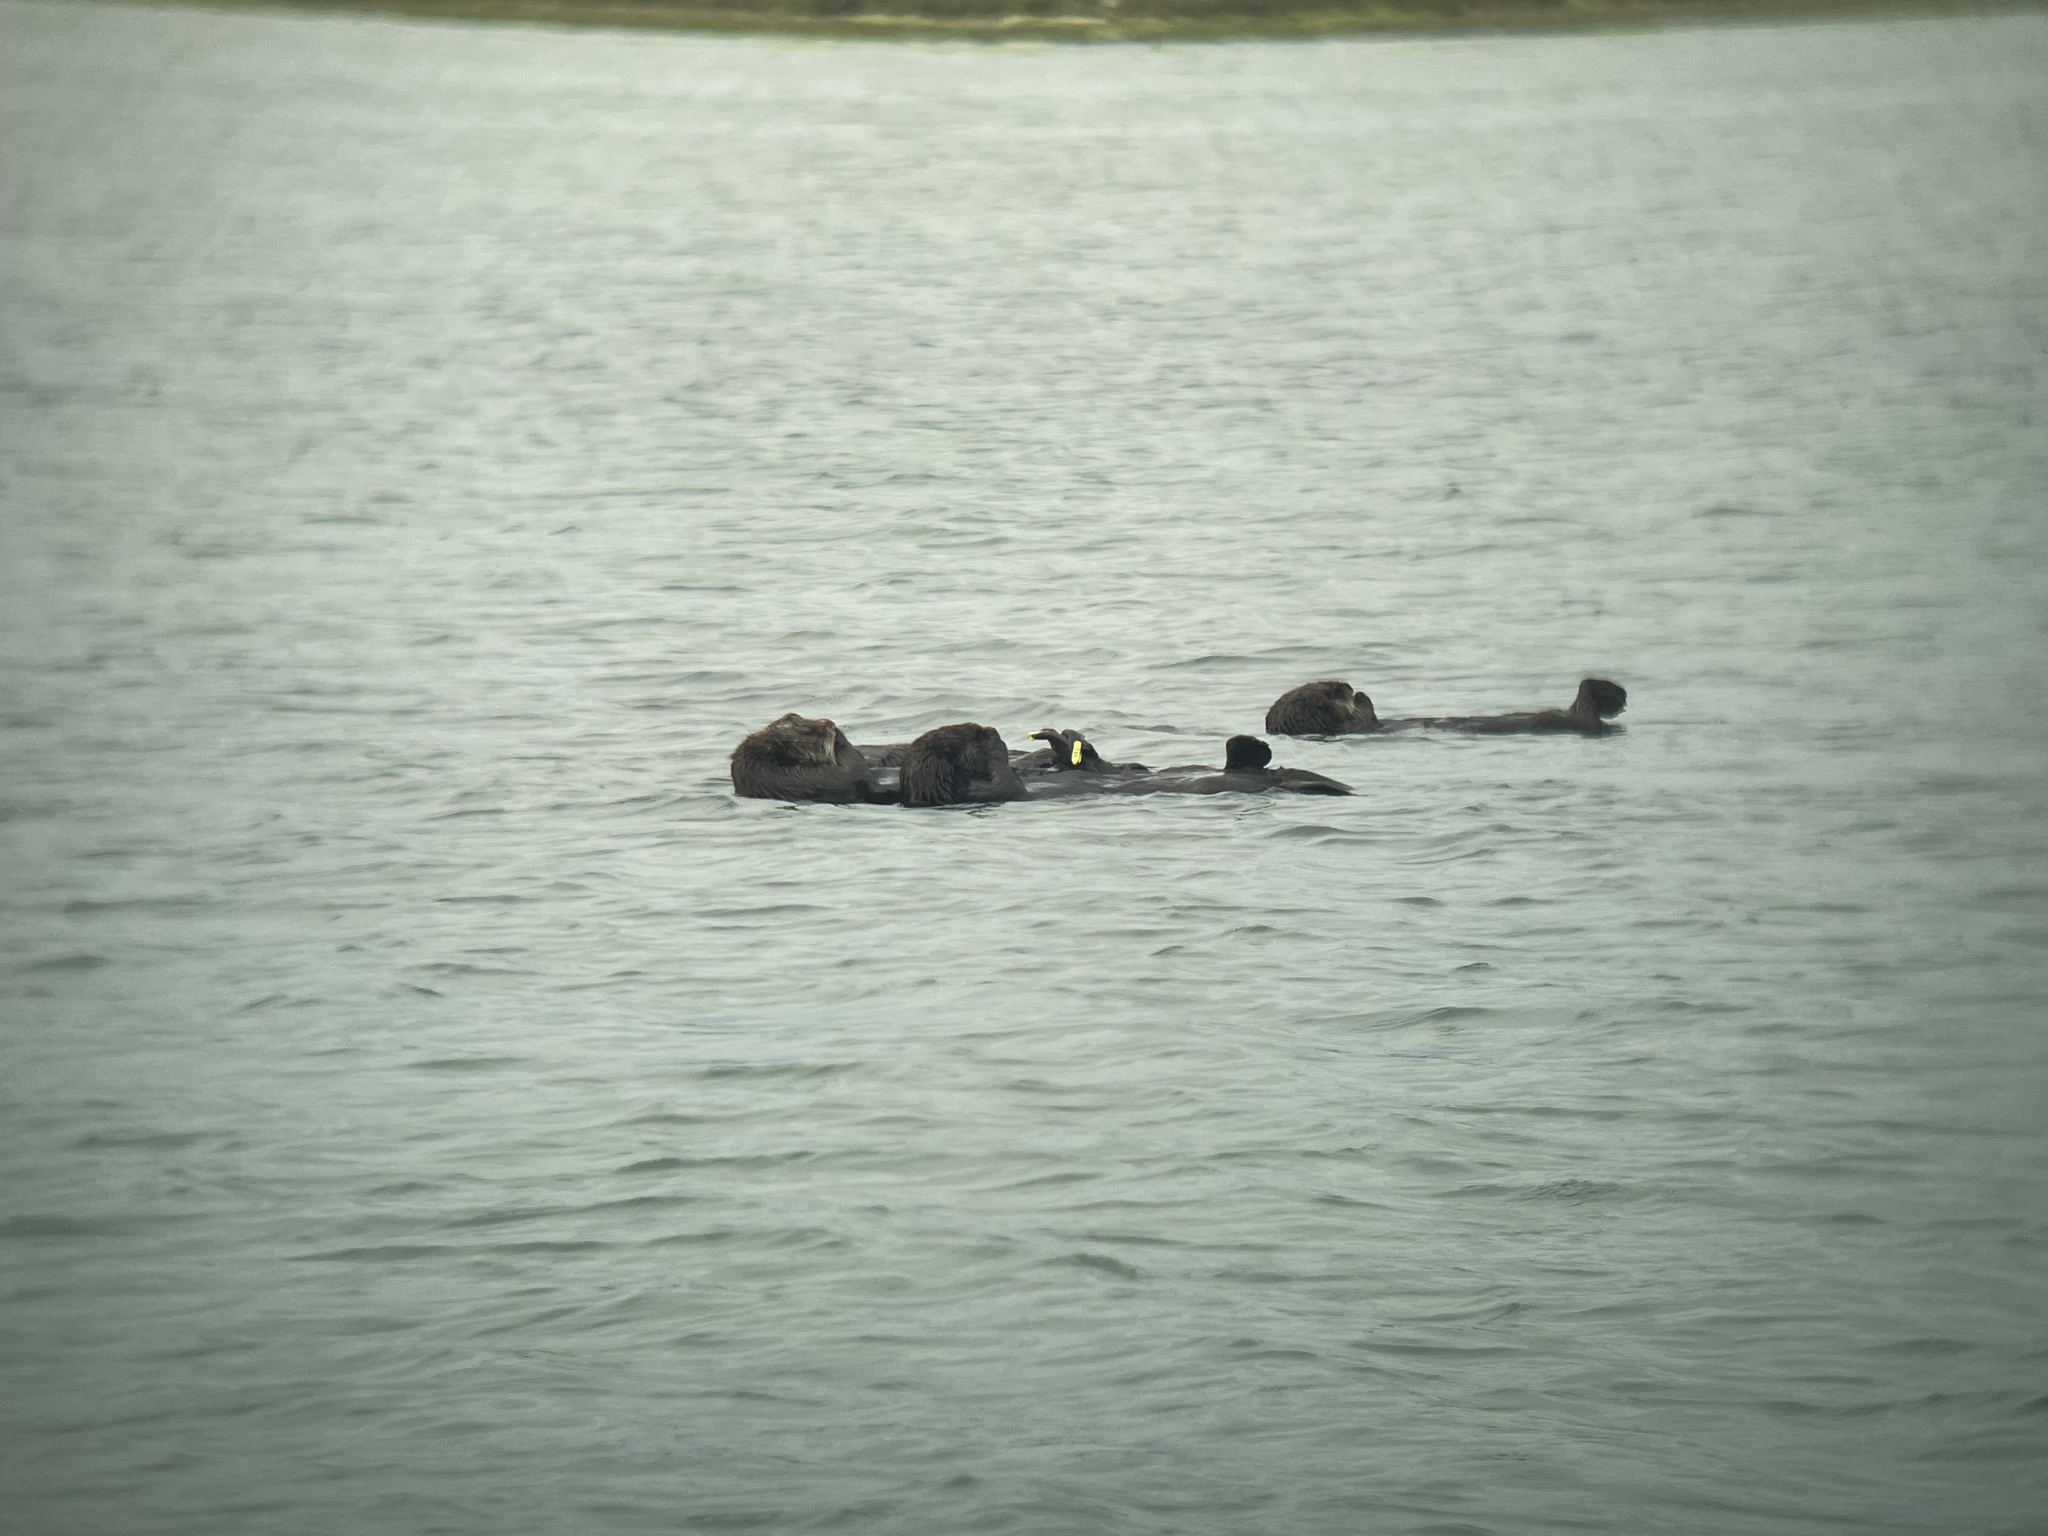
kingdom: Animalia
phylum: Chordata
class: Mammalia
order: Carnivora
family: Mustelidae
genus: Enhydra
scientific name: Enhydra lutris
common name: Sea otter
